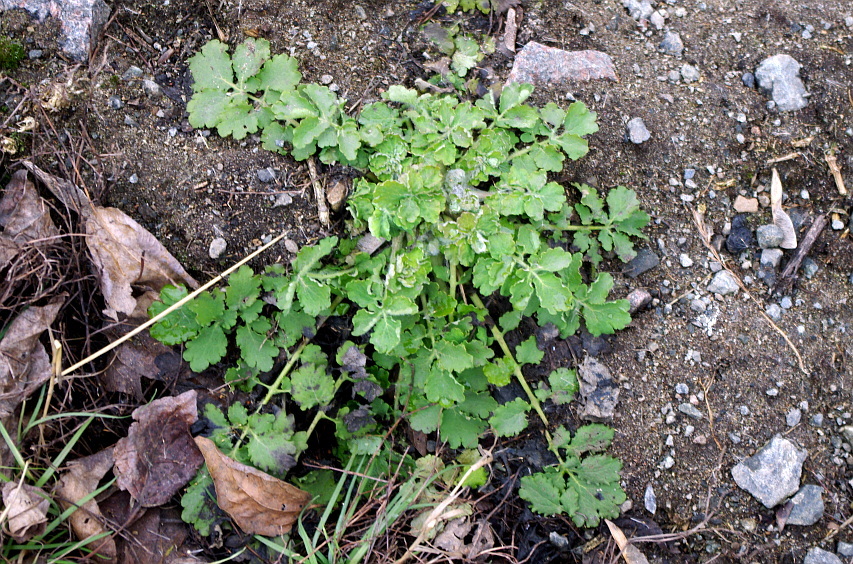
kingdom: Plantae
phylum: Tracheophyta
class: Magnoliopsida
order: Ranunculales
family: Papaveraceae
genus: Chelidonium
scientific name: Chelidonium majus
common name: Greater celandine
